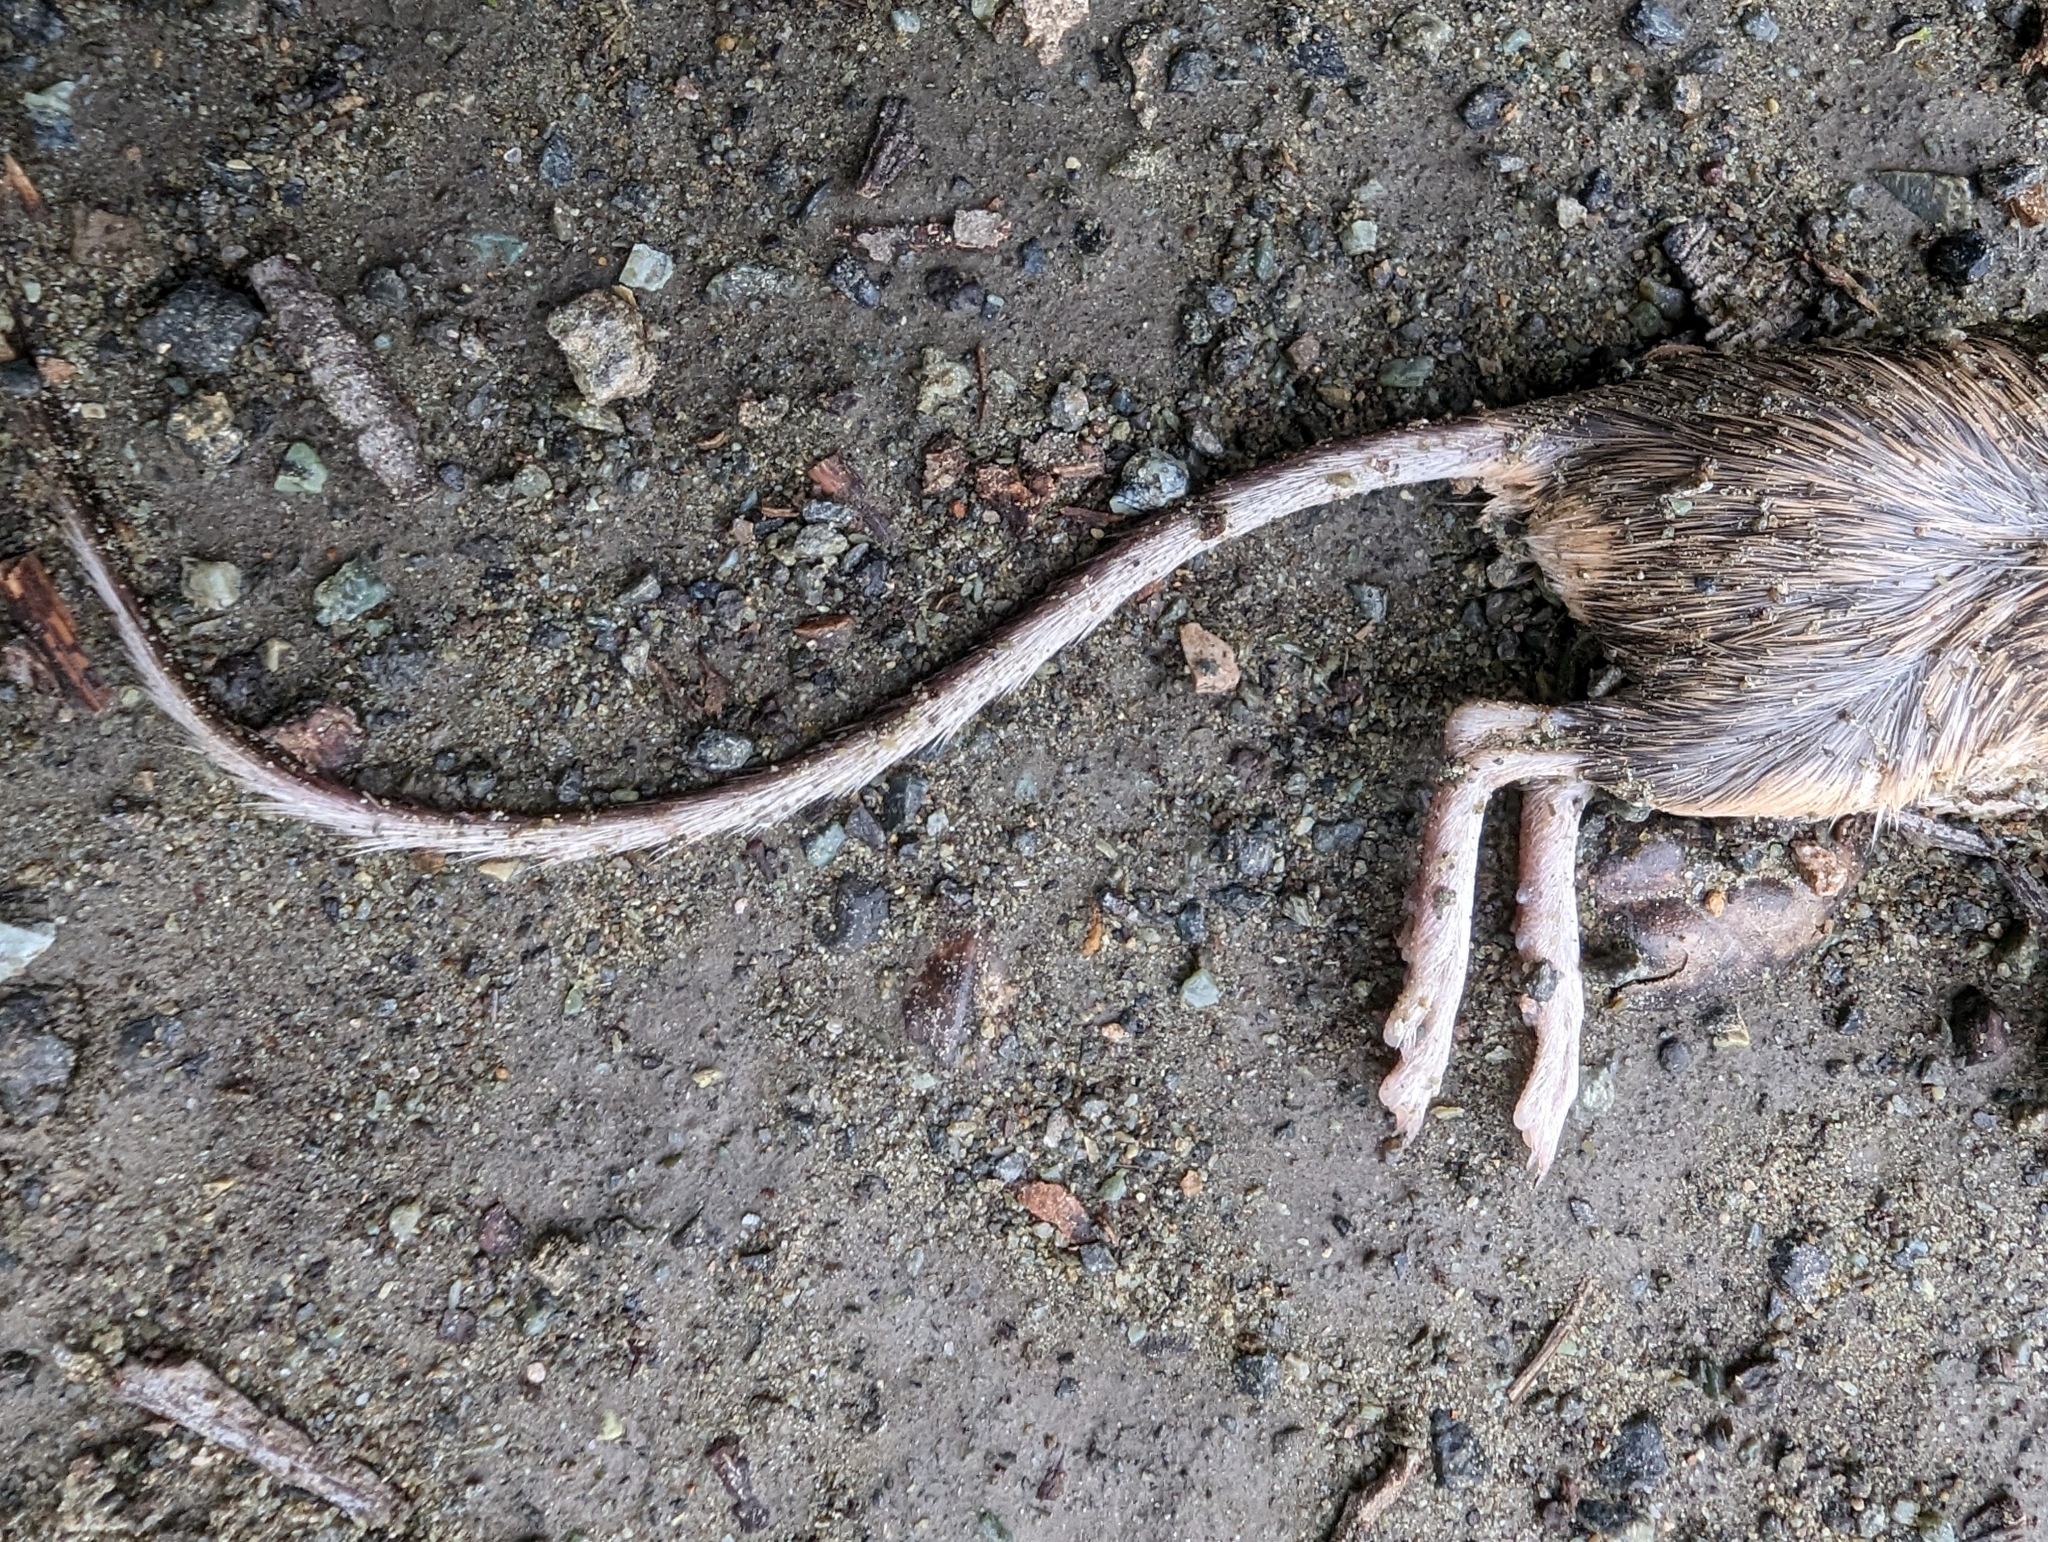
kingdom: Animalia
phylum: Chordata
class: Mammalia
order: Rodentia
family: Heteromyidae
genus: Chaetodipus
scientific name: Chaetodipus californicus
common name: California pocket mouse
